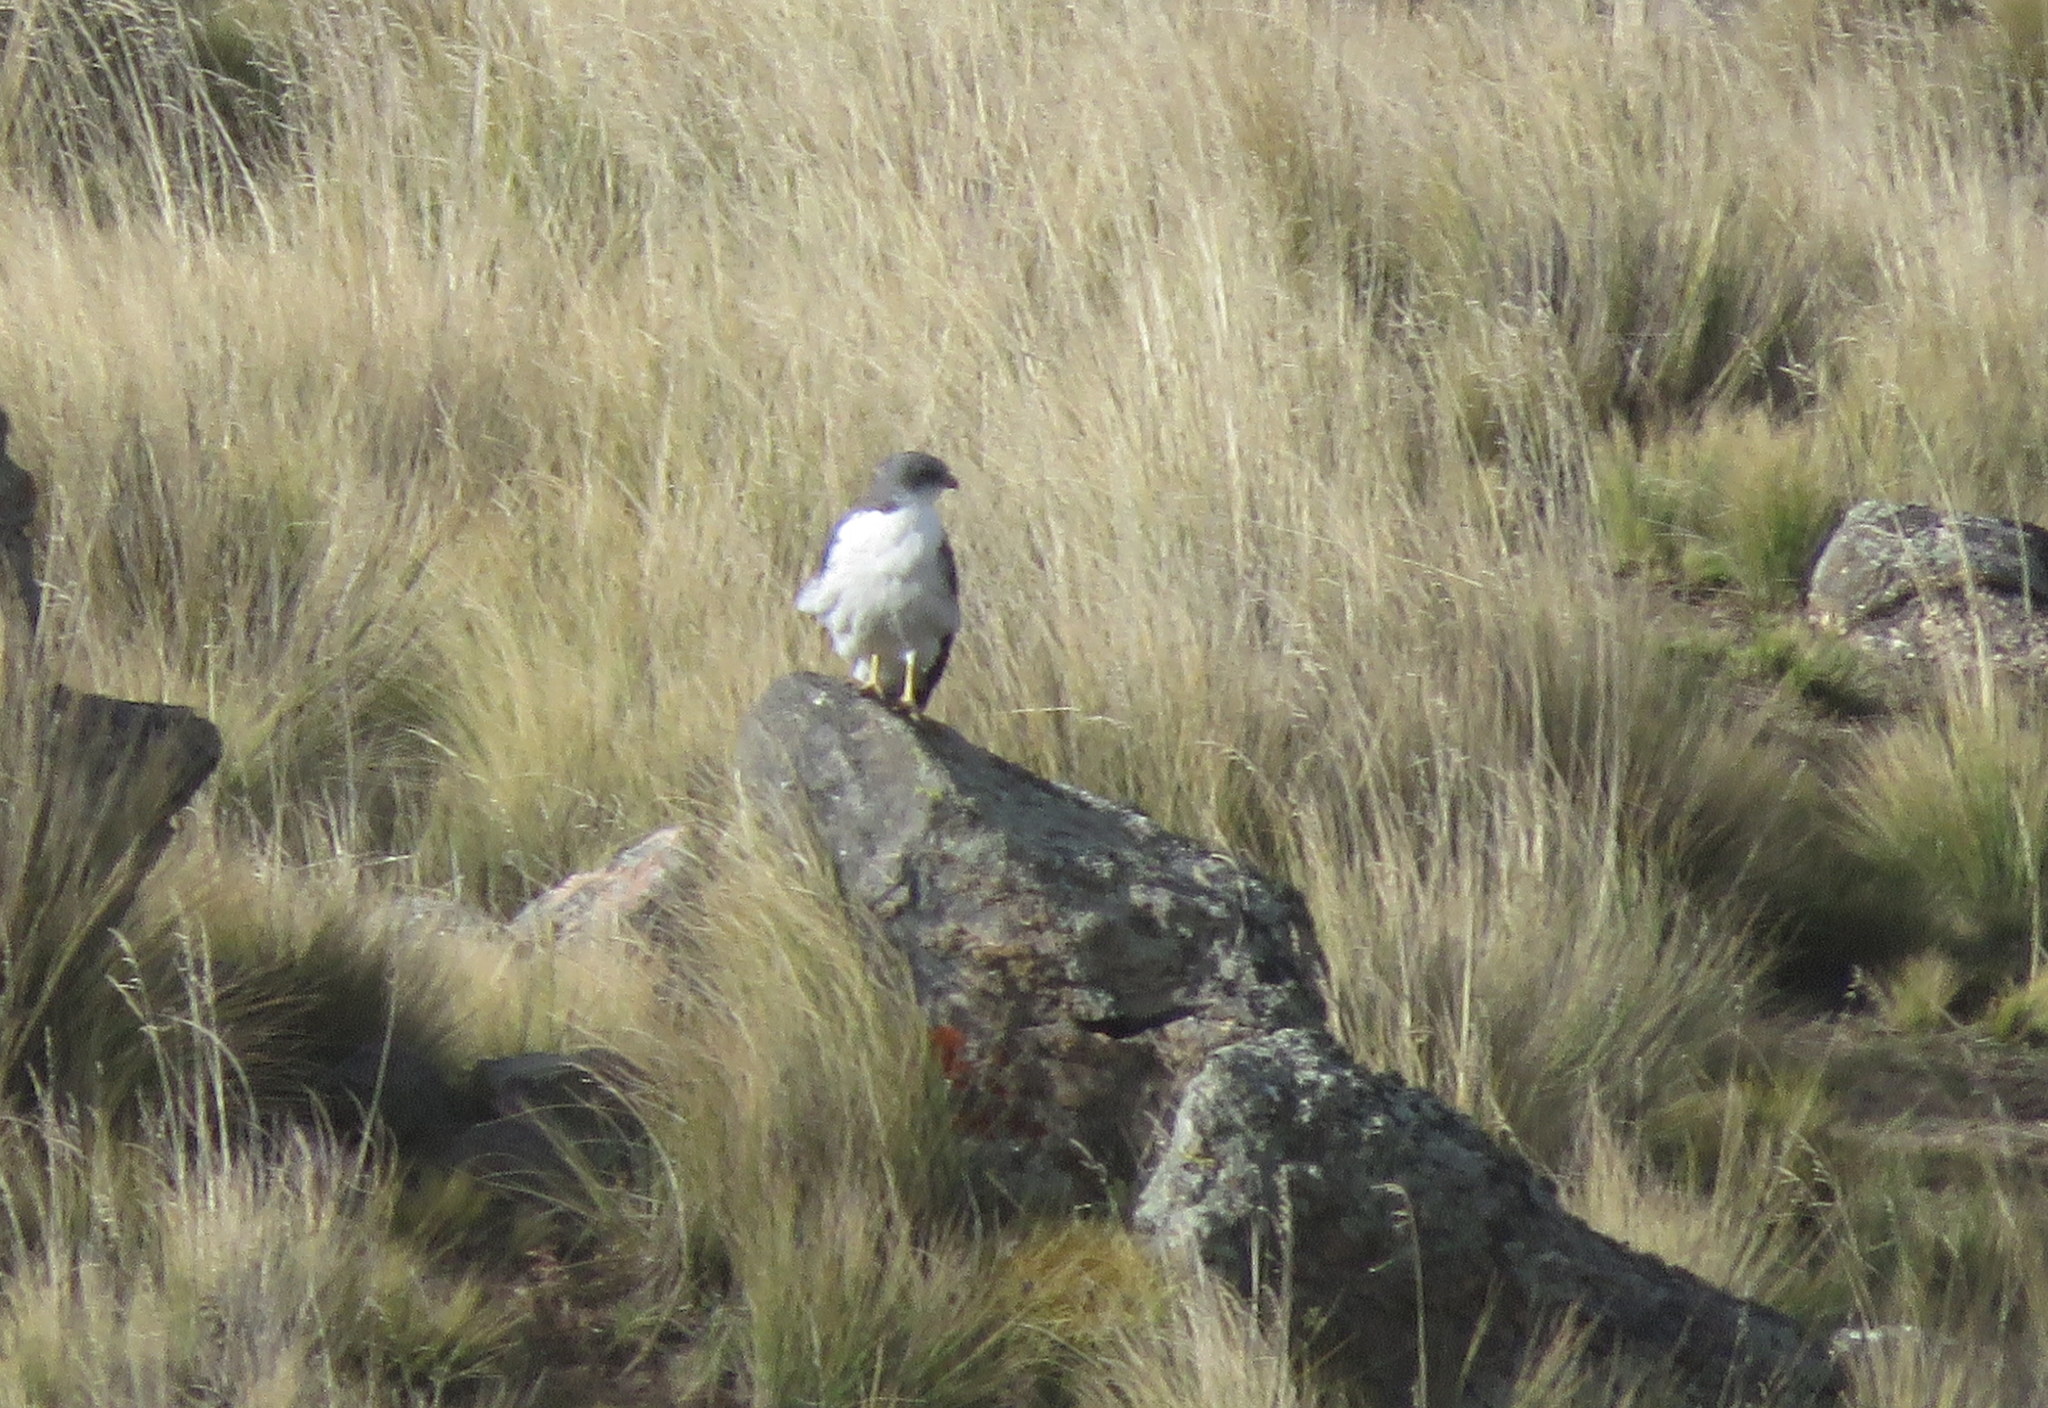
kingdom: Animalia
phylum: Chordata
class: Aves
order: Accipitriformes
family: Accipitridae
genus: Buteo
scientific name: Buteo polyosoma
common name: Variable hawk
